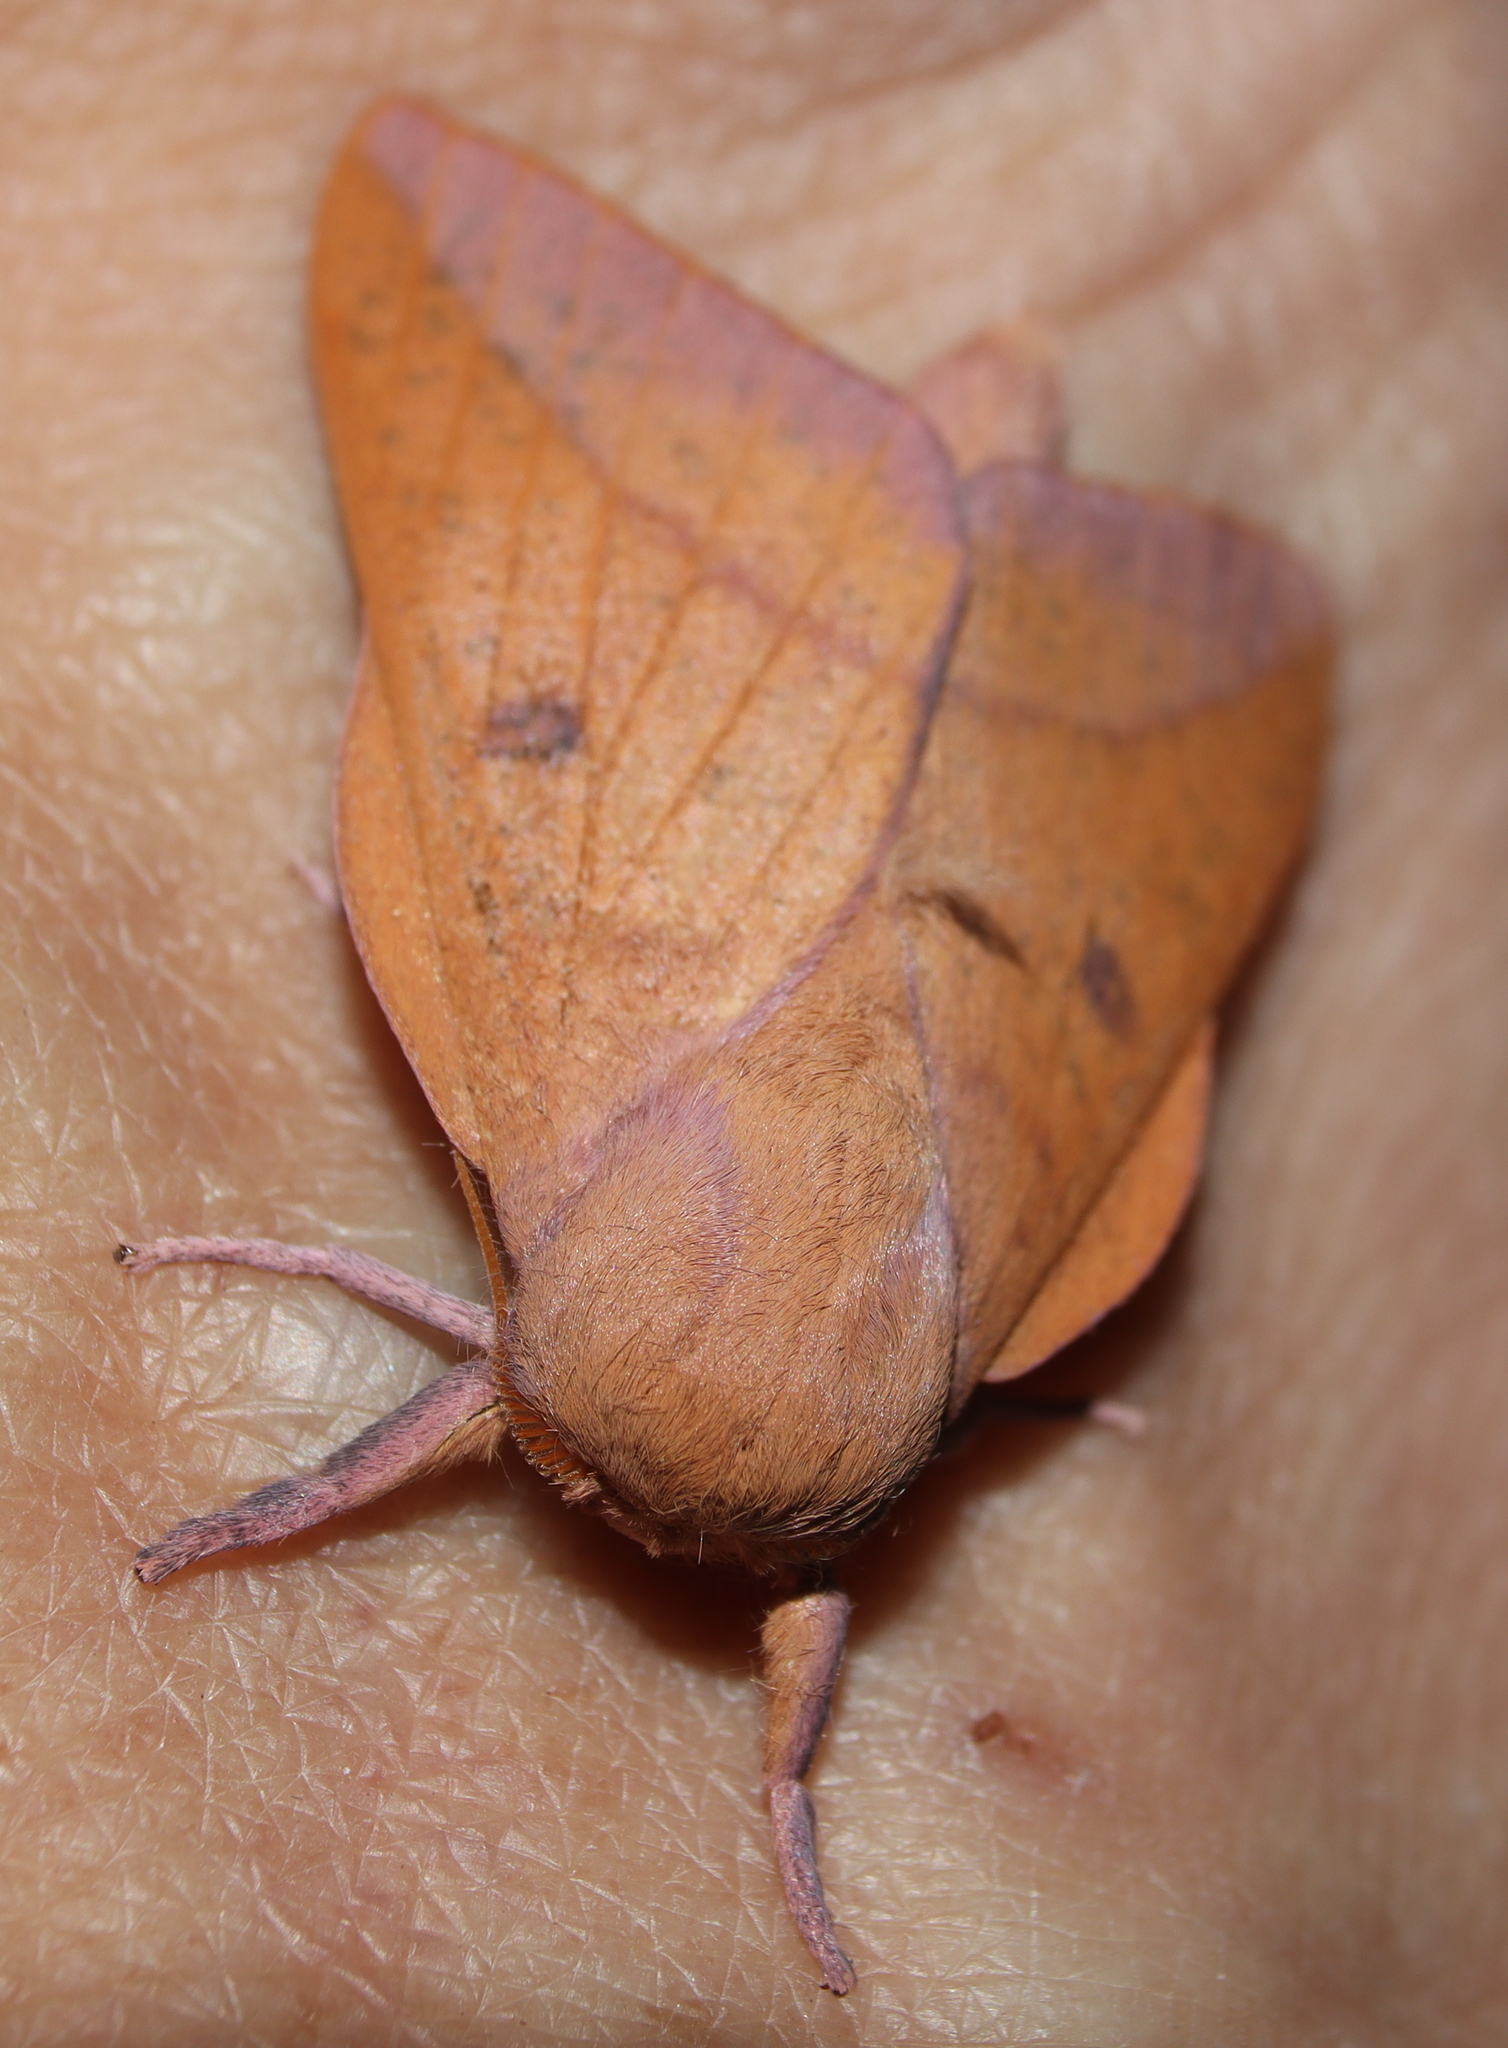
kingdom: Animalia
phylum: Arthropoda
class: Insecta
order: Lepidoptera
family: Saturniidae
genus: Adeloneivaia
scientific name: Adeloneivaia catharina
